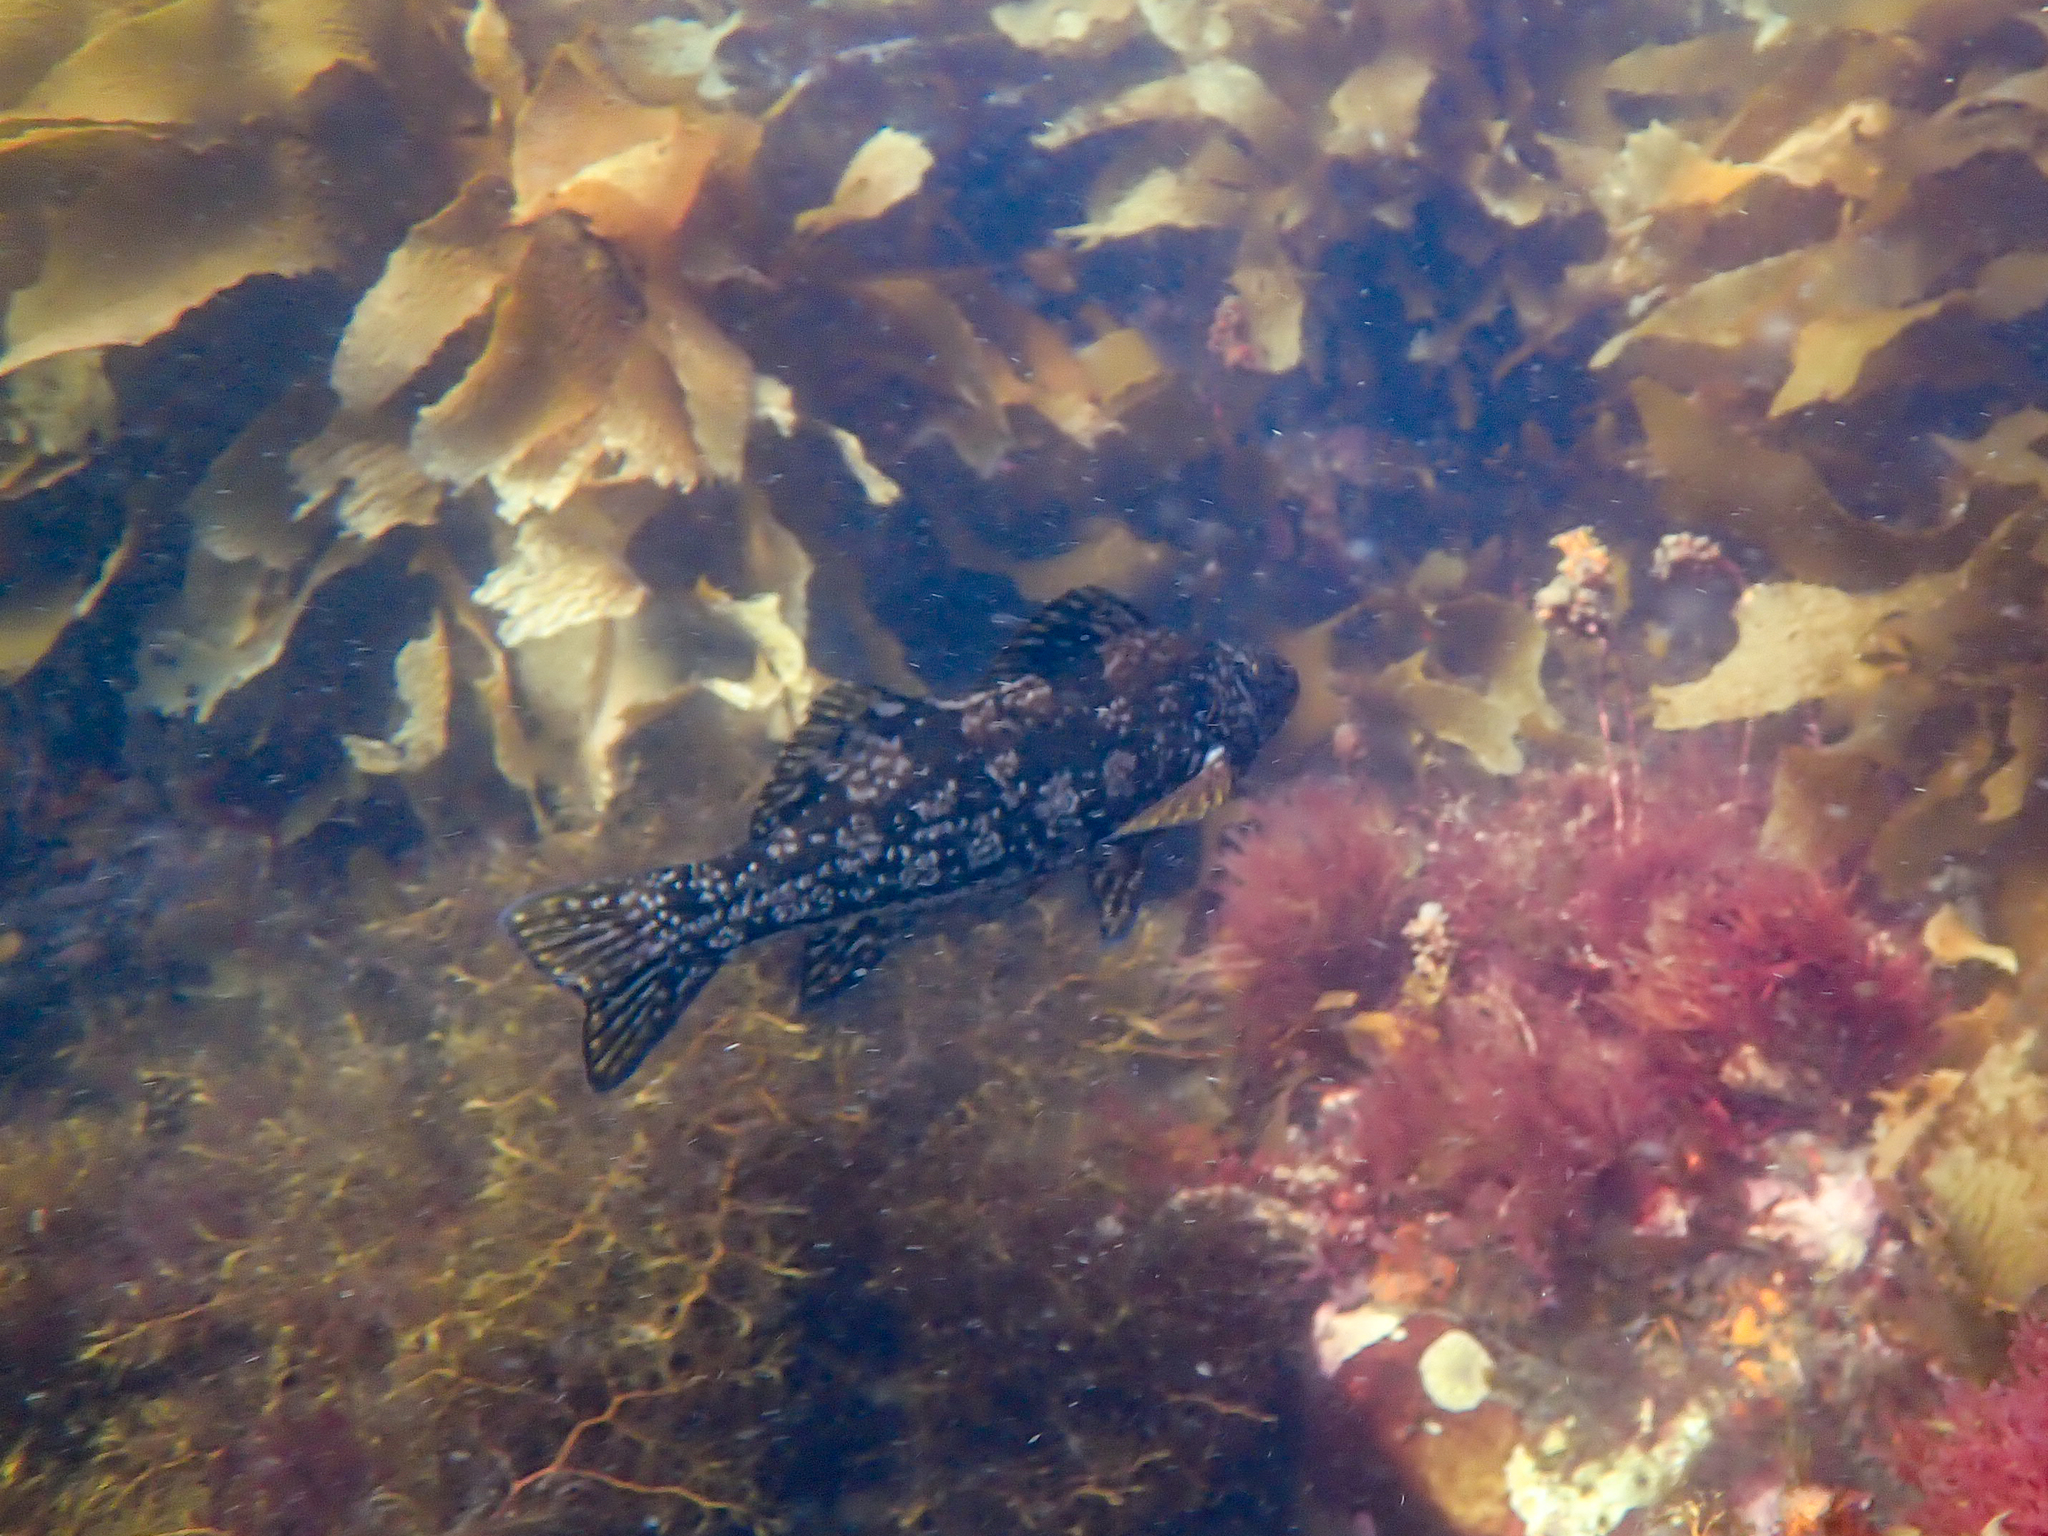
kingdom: Animalia
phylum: Chordata
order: Perciformes
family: Aplodactylidae
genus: Aplodactylus
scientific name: Aplodactylus arctidens
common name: Marblefish
